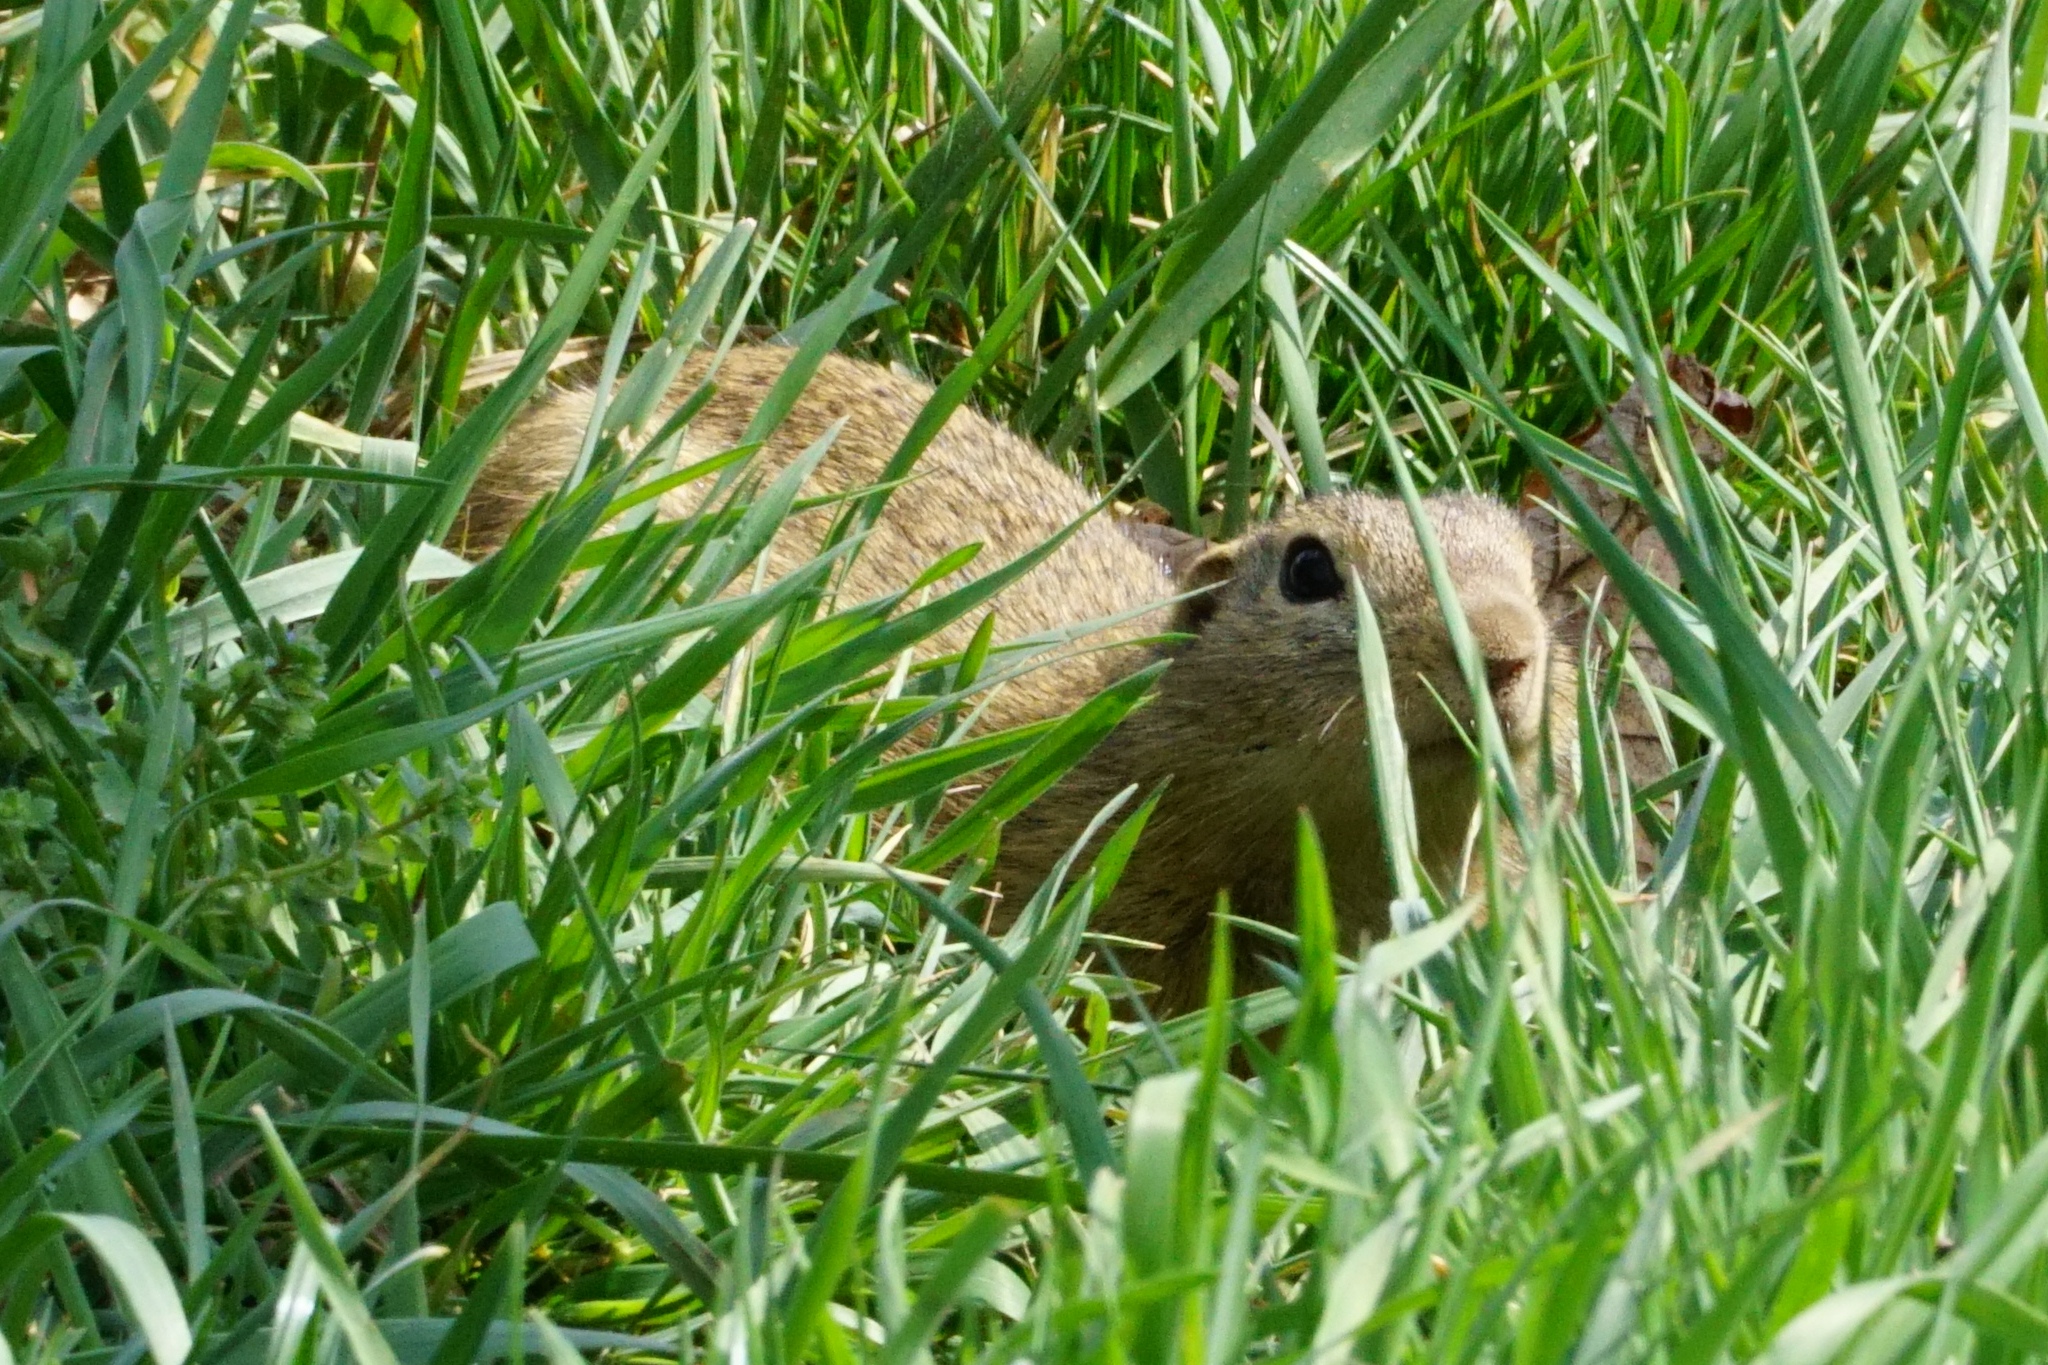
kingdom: Animalia
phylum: Chordata
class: Mammalia
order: Rodentia
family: Sciuridae
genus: Spermophilus
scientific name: Spermophilus citellus
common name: European ground squirrel
